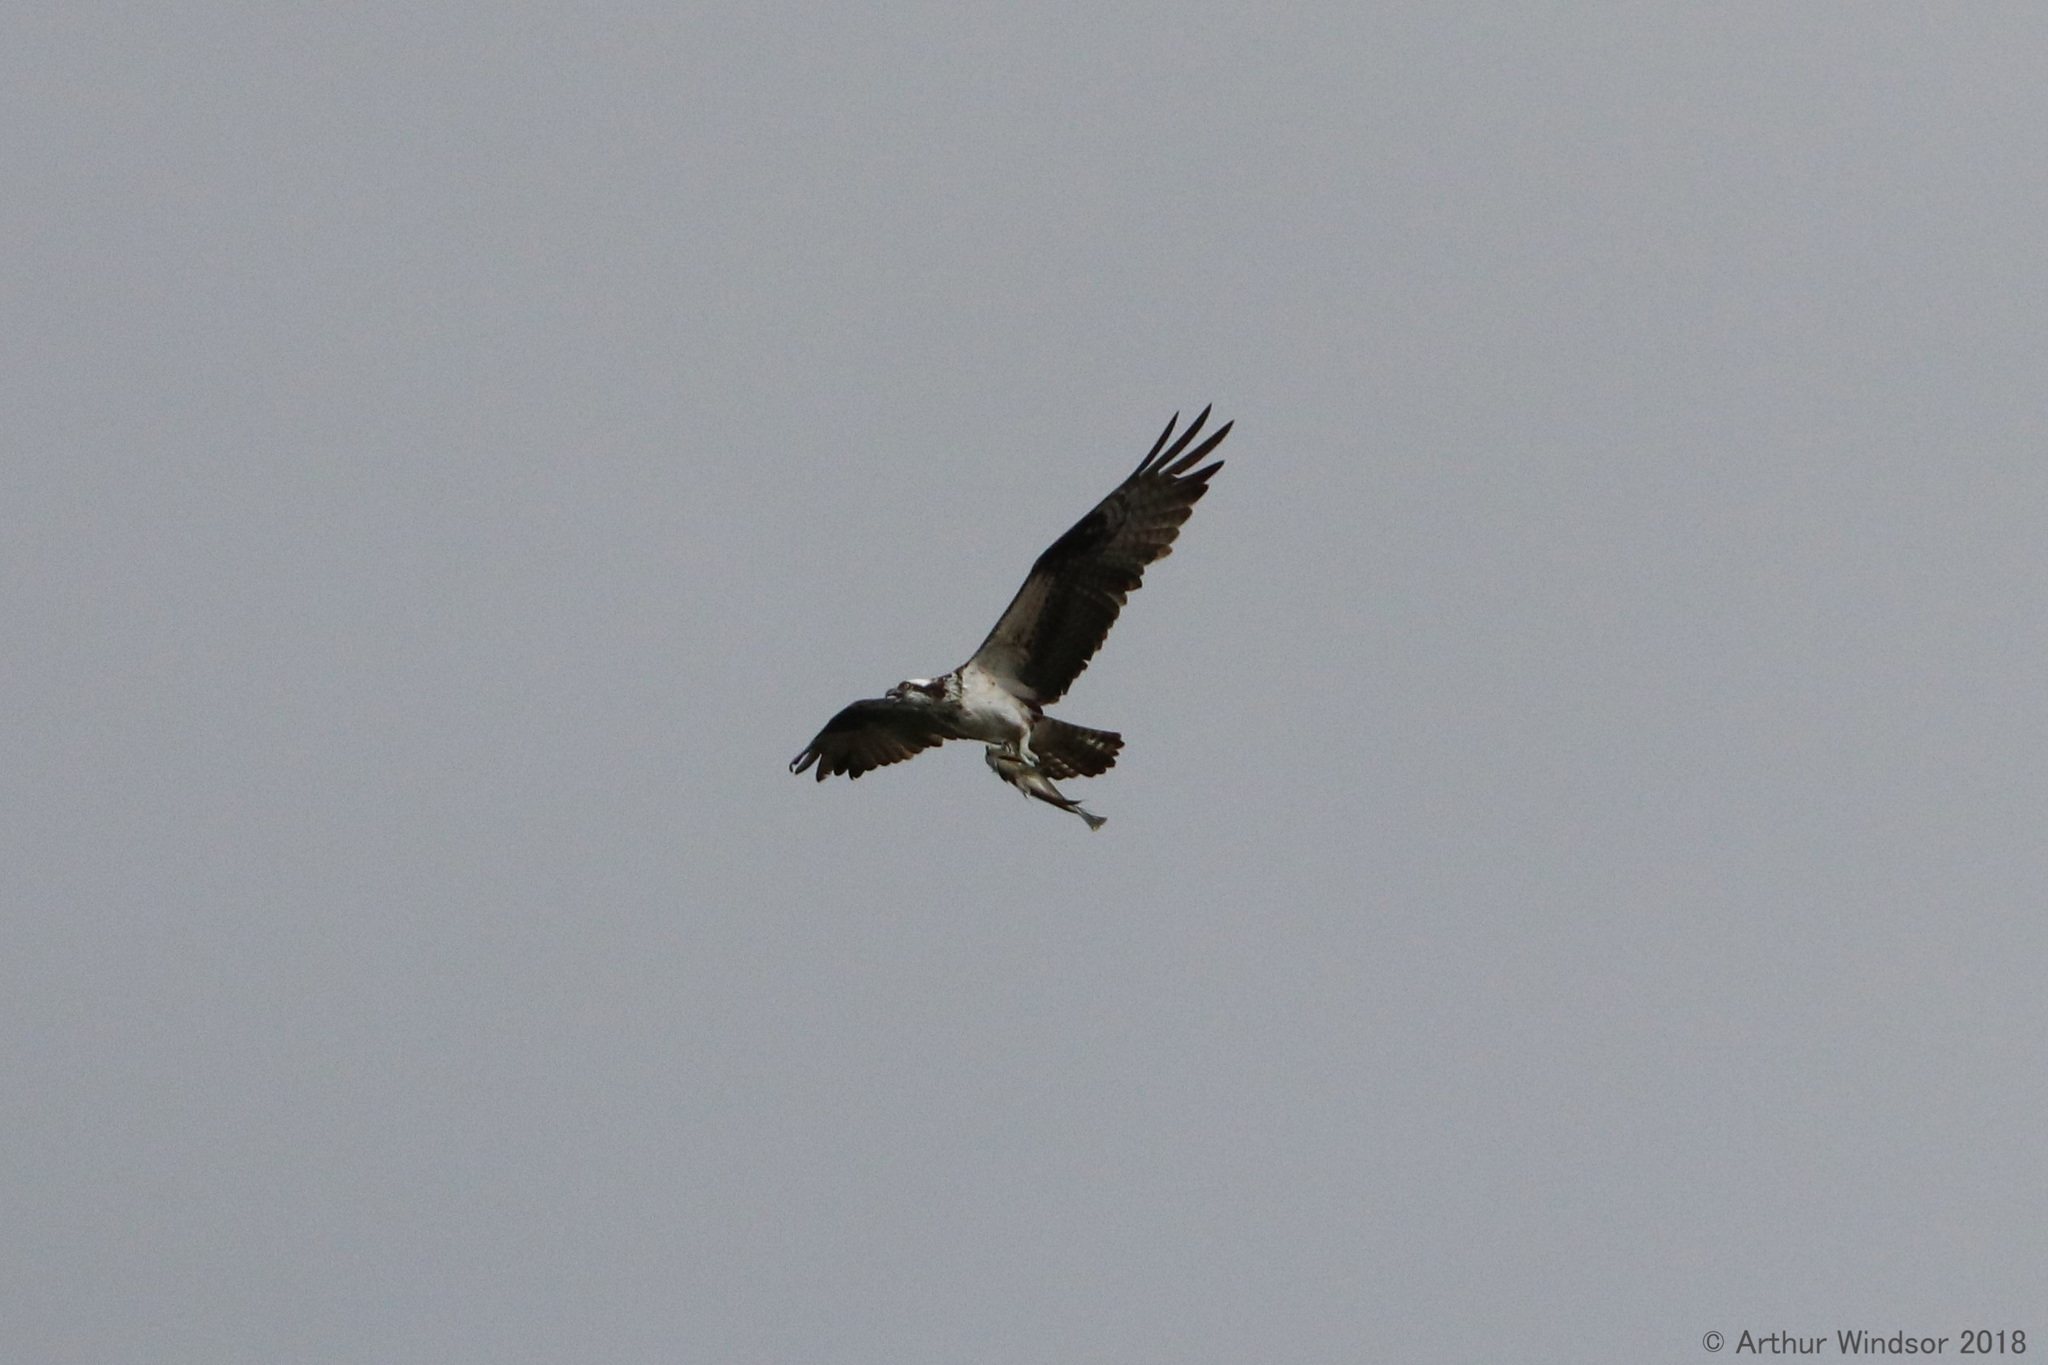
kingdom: Animalia
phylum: Chordata
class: Aves
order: Accipitriformes
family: Pandionidae
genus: Pandion
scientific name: Pandion haliaetus
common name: Osprey
